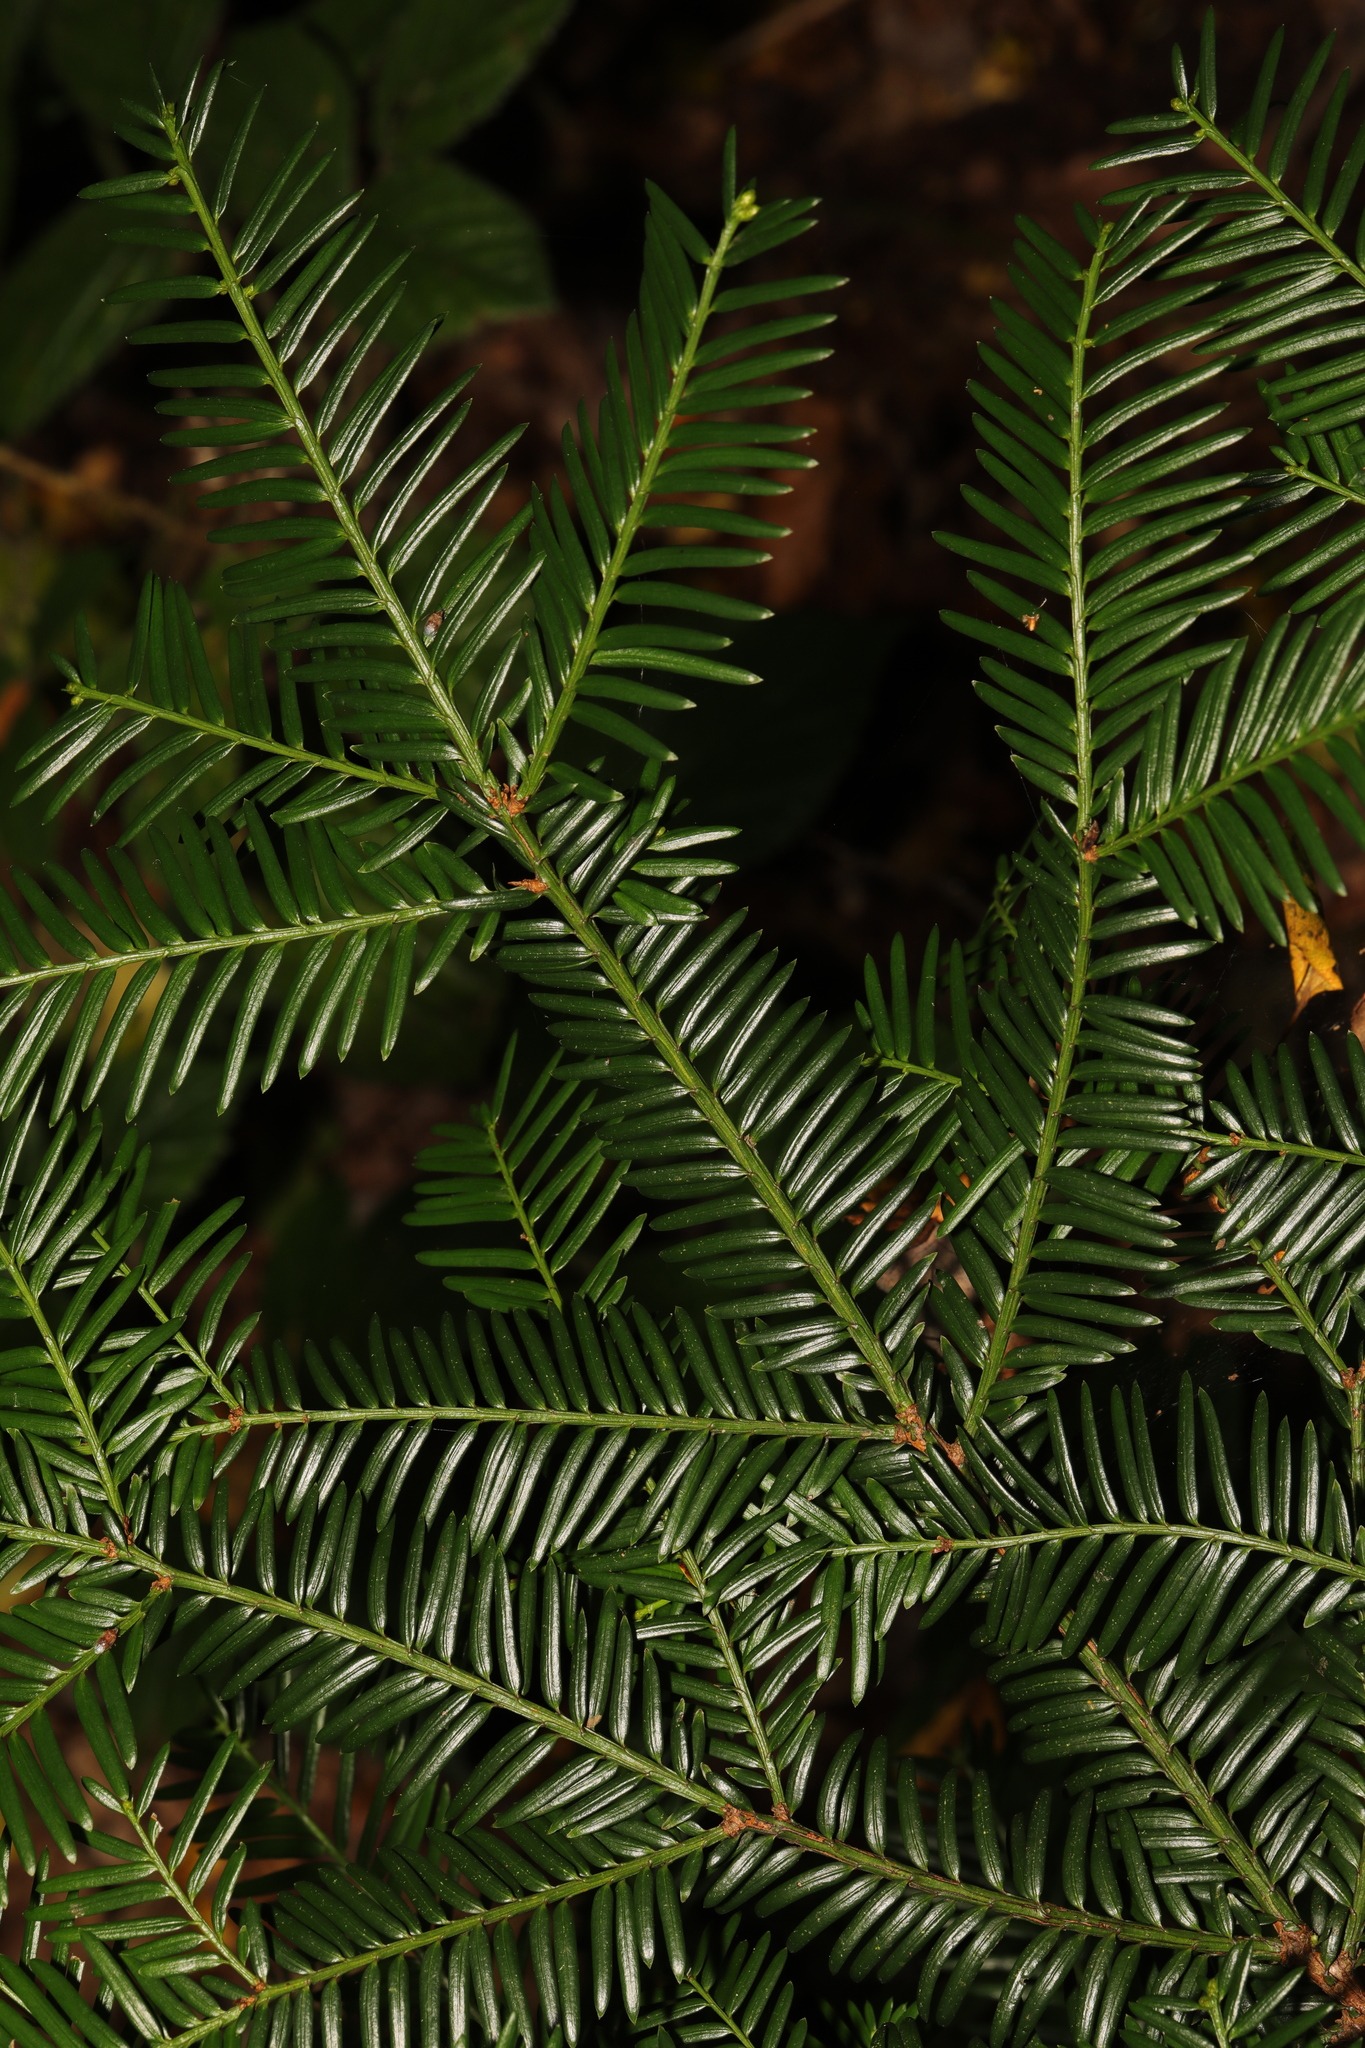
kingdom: Plantae
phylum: Tracheophyta
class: Pinopsida
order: Pinales
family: Taxaceae
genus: Taxus
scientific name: Taxus baccata
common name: Yew
